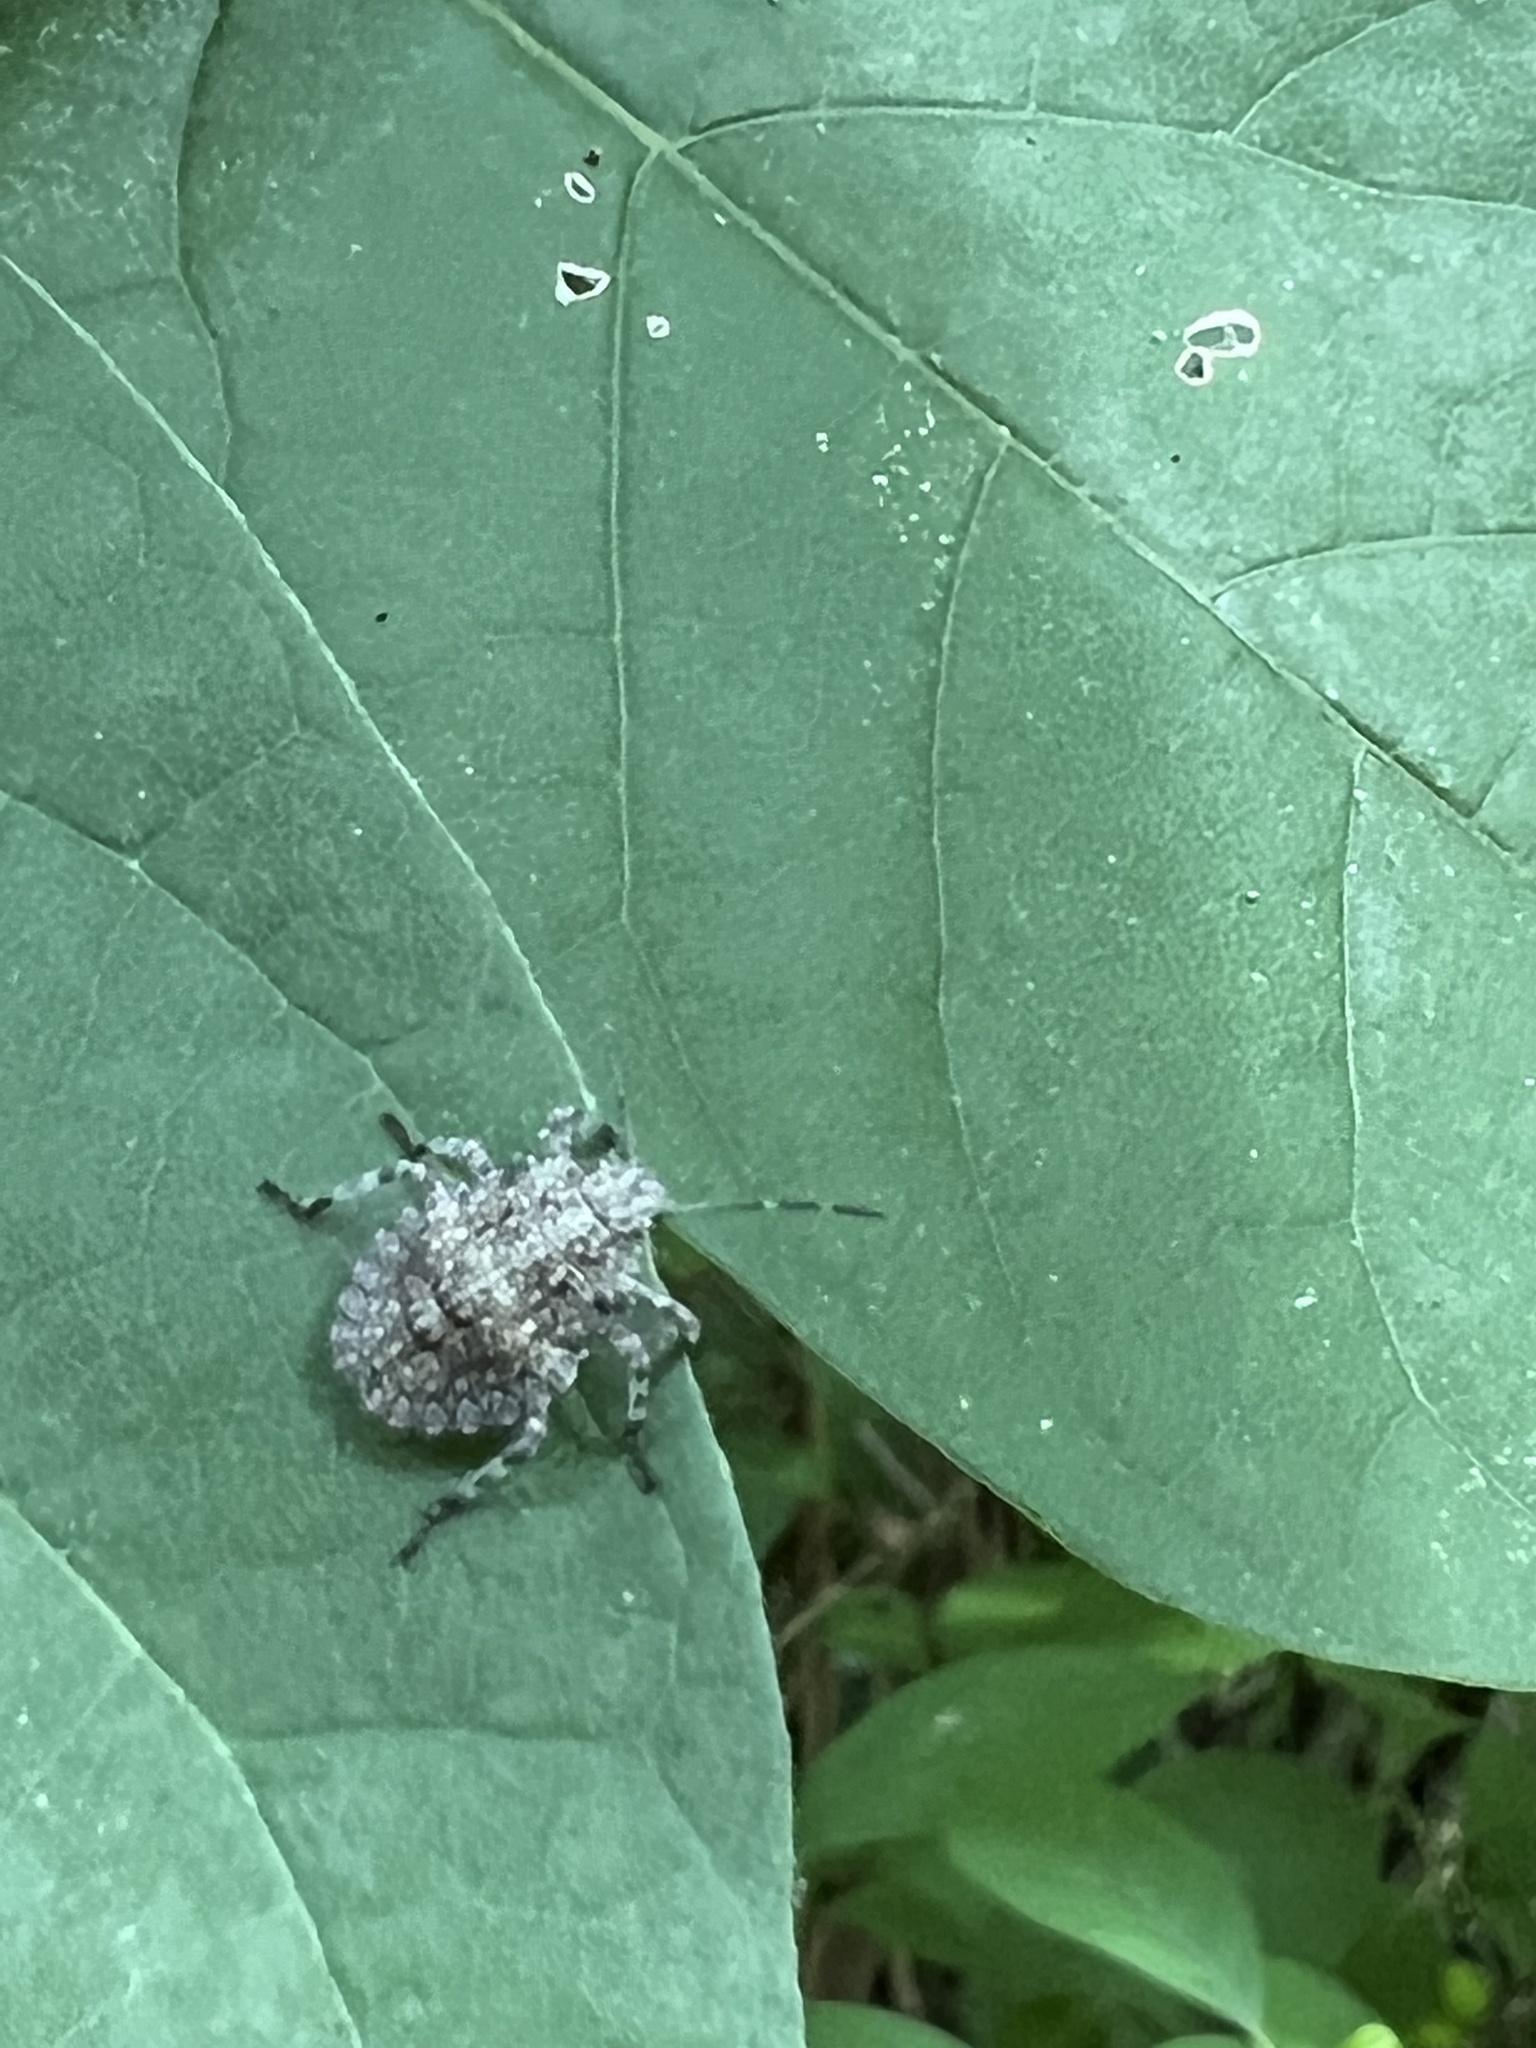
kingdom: Animalia
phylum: Arthropoda
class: Insecta
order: Hemiptera
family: Pentatomidae
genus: Brochymena
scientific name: Brochymena arborea
